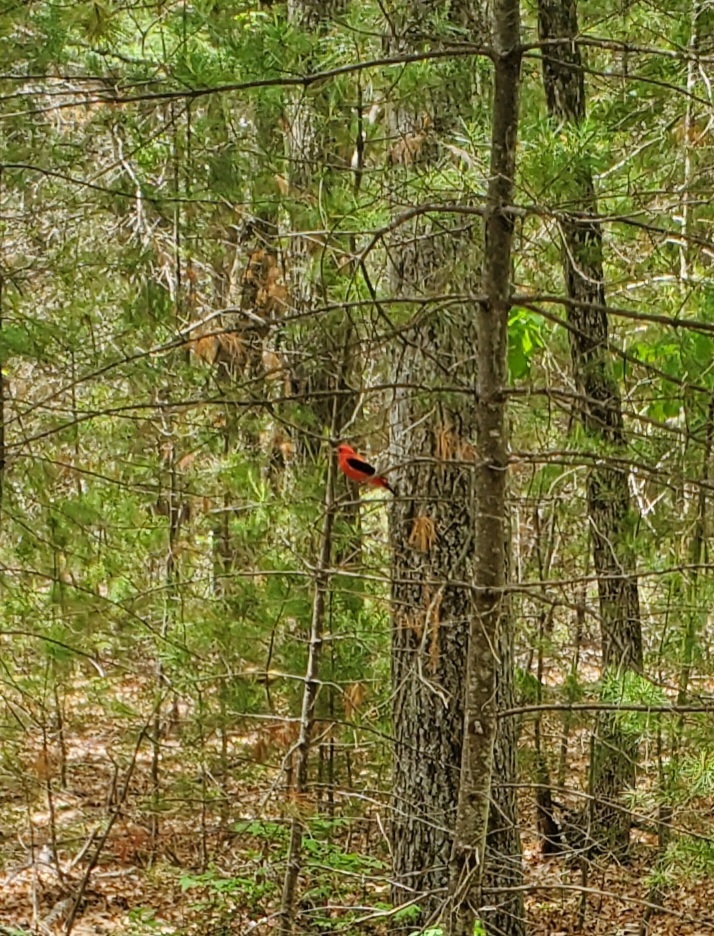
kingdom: Animalia
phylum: Chordata
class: Aves
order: Passeriformes
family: Cardinalidae
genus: Piranga
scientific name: Piranga olivacea
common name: Scarlet tanager
